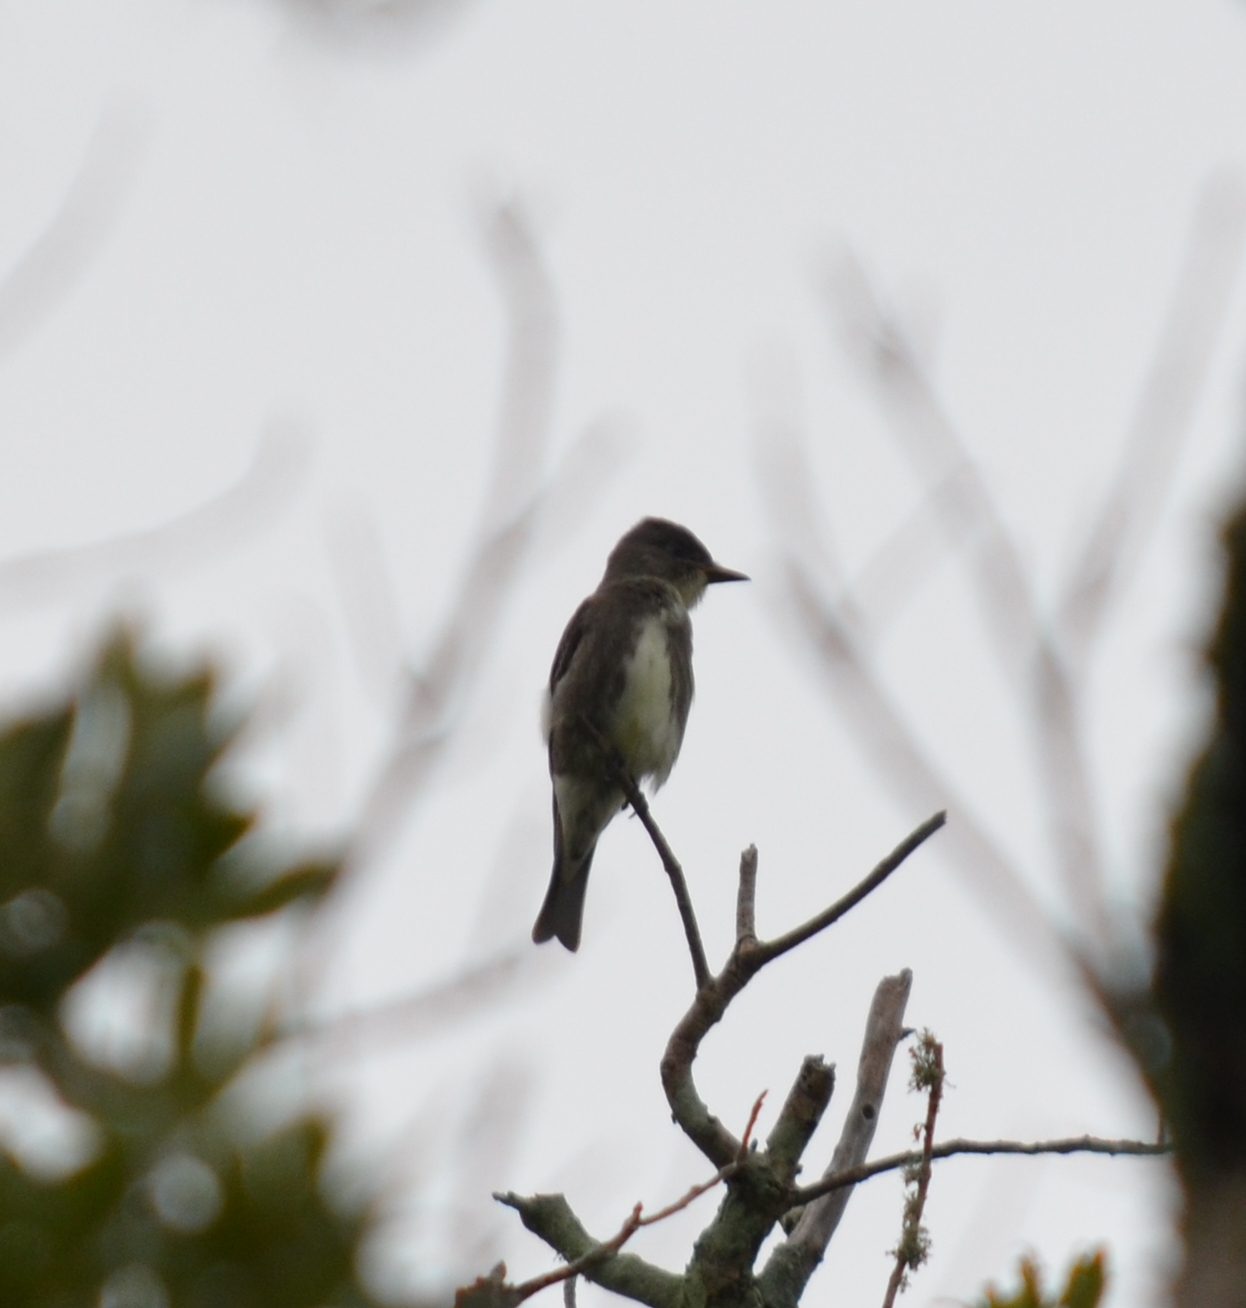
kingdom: Animalia
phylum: Chordata
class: Aves
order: Passeriformes
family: Tyrannidae
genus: Contopus
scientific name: Contopus cooperi
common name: Olive-sided flycatcher
